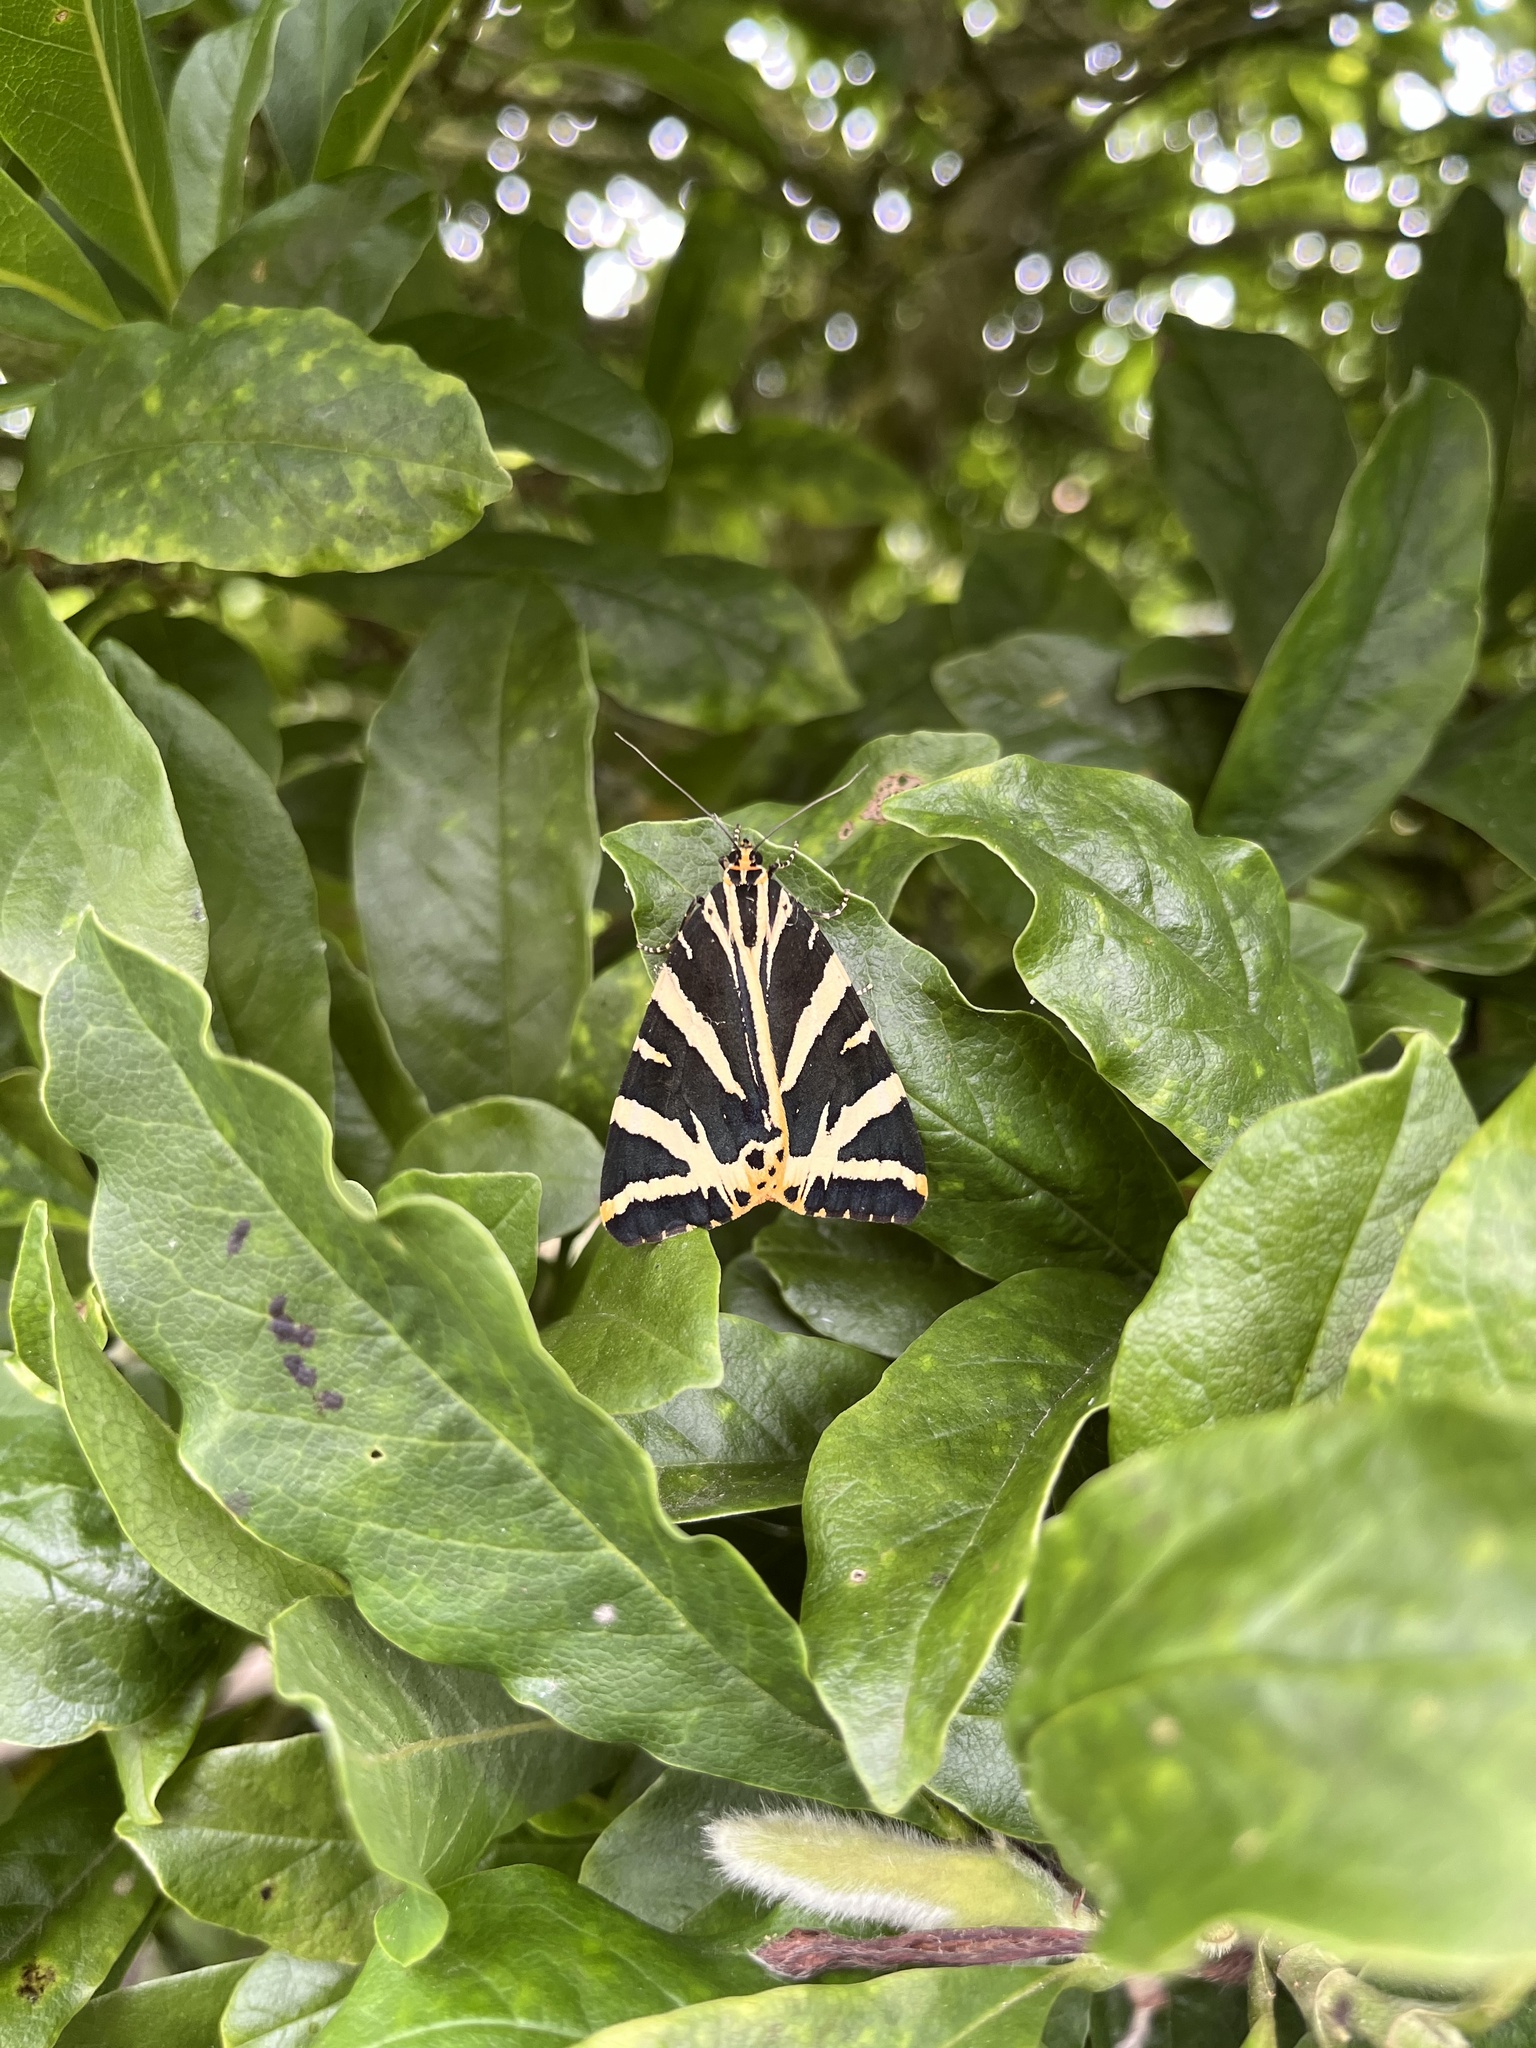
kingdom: Animalia
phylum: Arthropoda
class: Insecta
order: Lepidoptera
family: Erebidae
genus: Euplagia
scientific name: Euplagia quadripunctaria
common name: Jersey tiger
